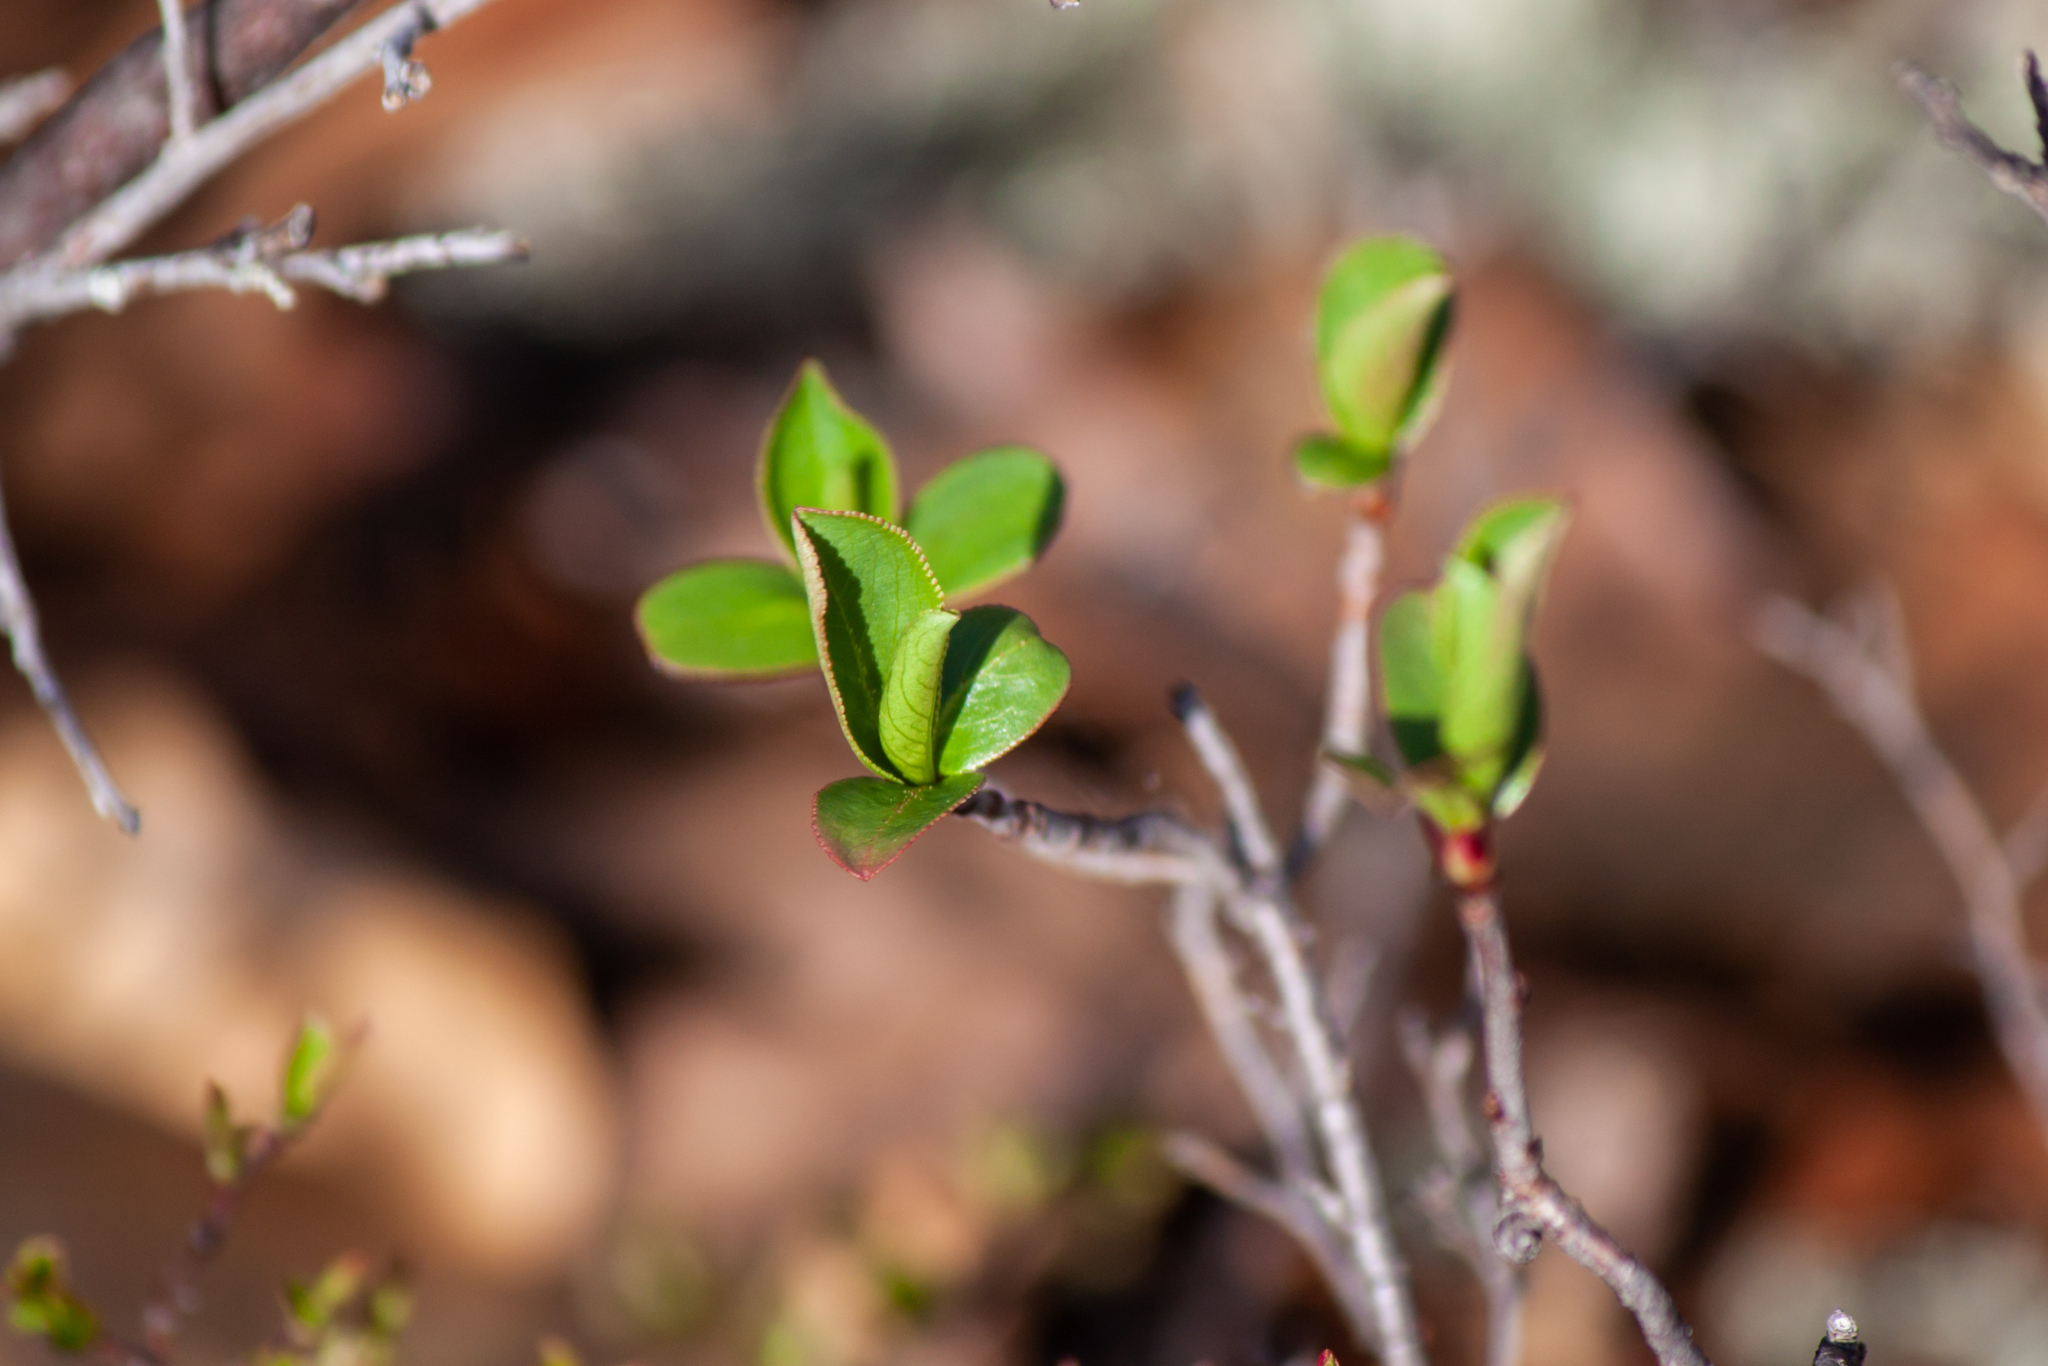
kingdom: Plantae
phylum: Tracheophyta
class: Magnoliopsida
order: Rosales
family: Rosaceae
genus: Aronia
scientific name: Aronia melanocarpa
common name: Black chokeberry
